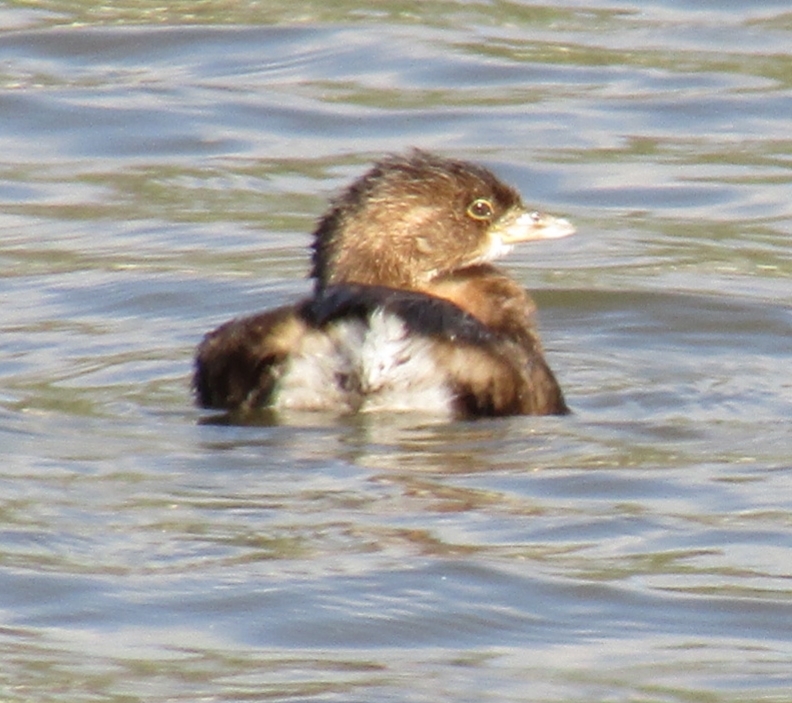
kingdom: Animalia
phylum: Chordata
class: Aves
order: Podicipediformes
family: Podicipedidae
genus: Podilymbus
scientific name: Podilymbus podiceps
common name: Pied-billed grebe
